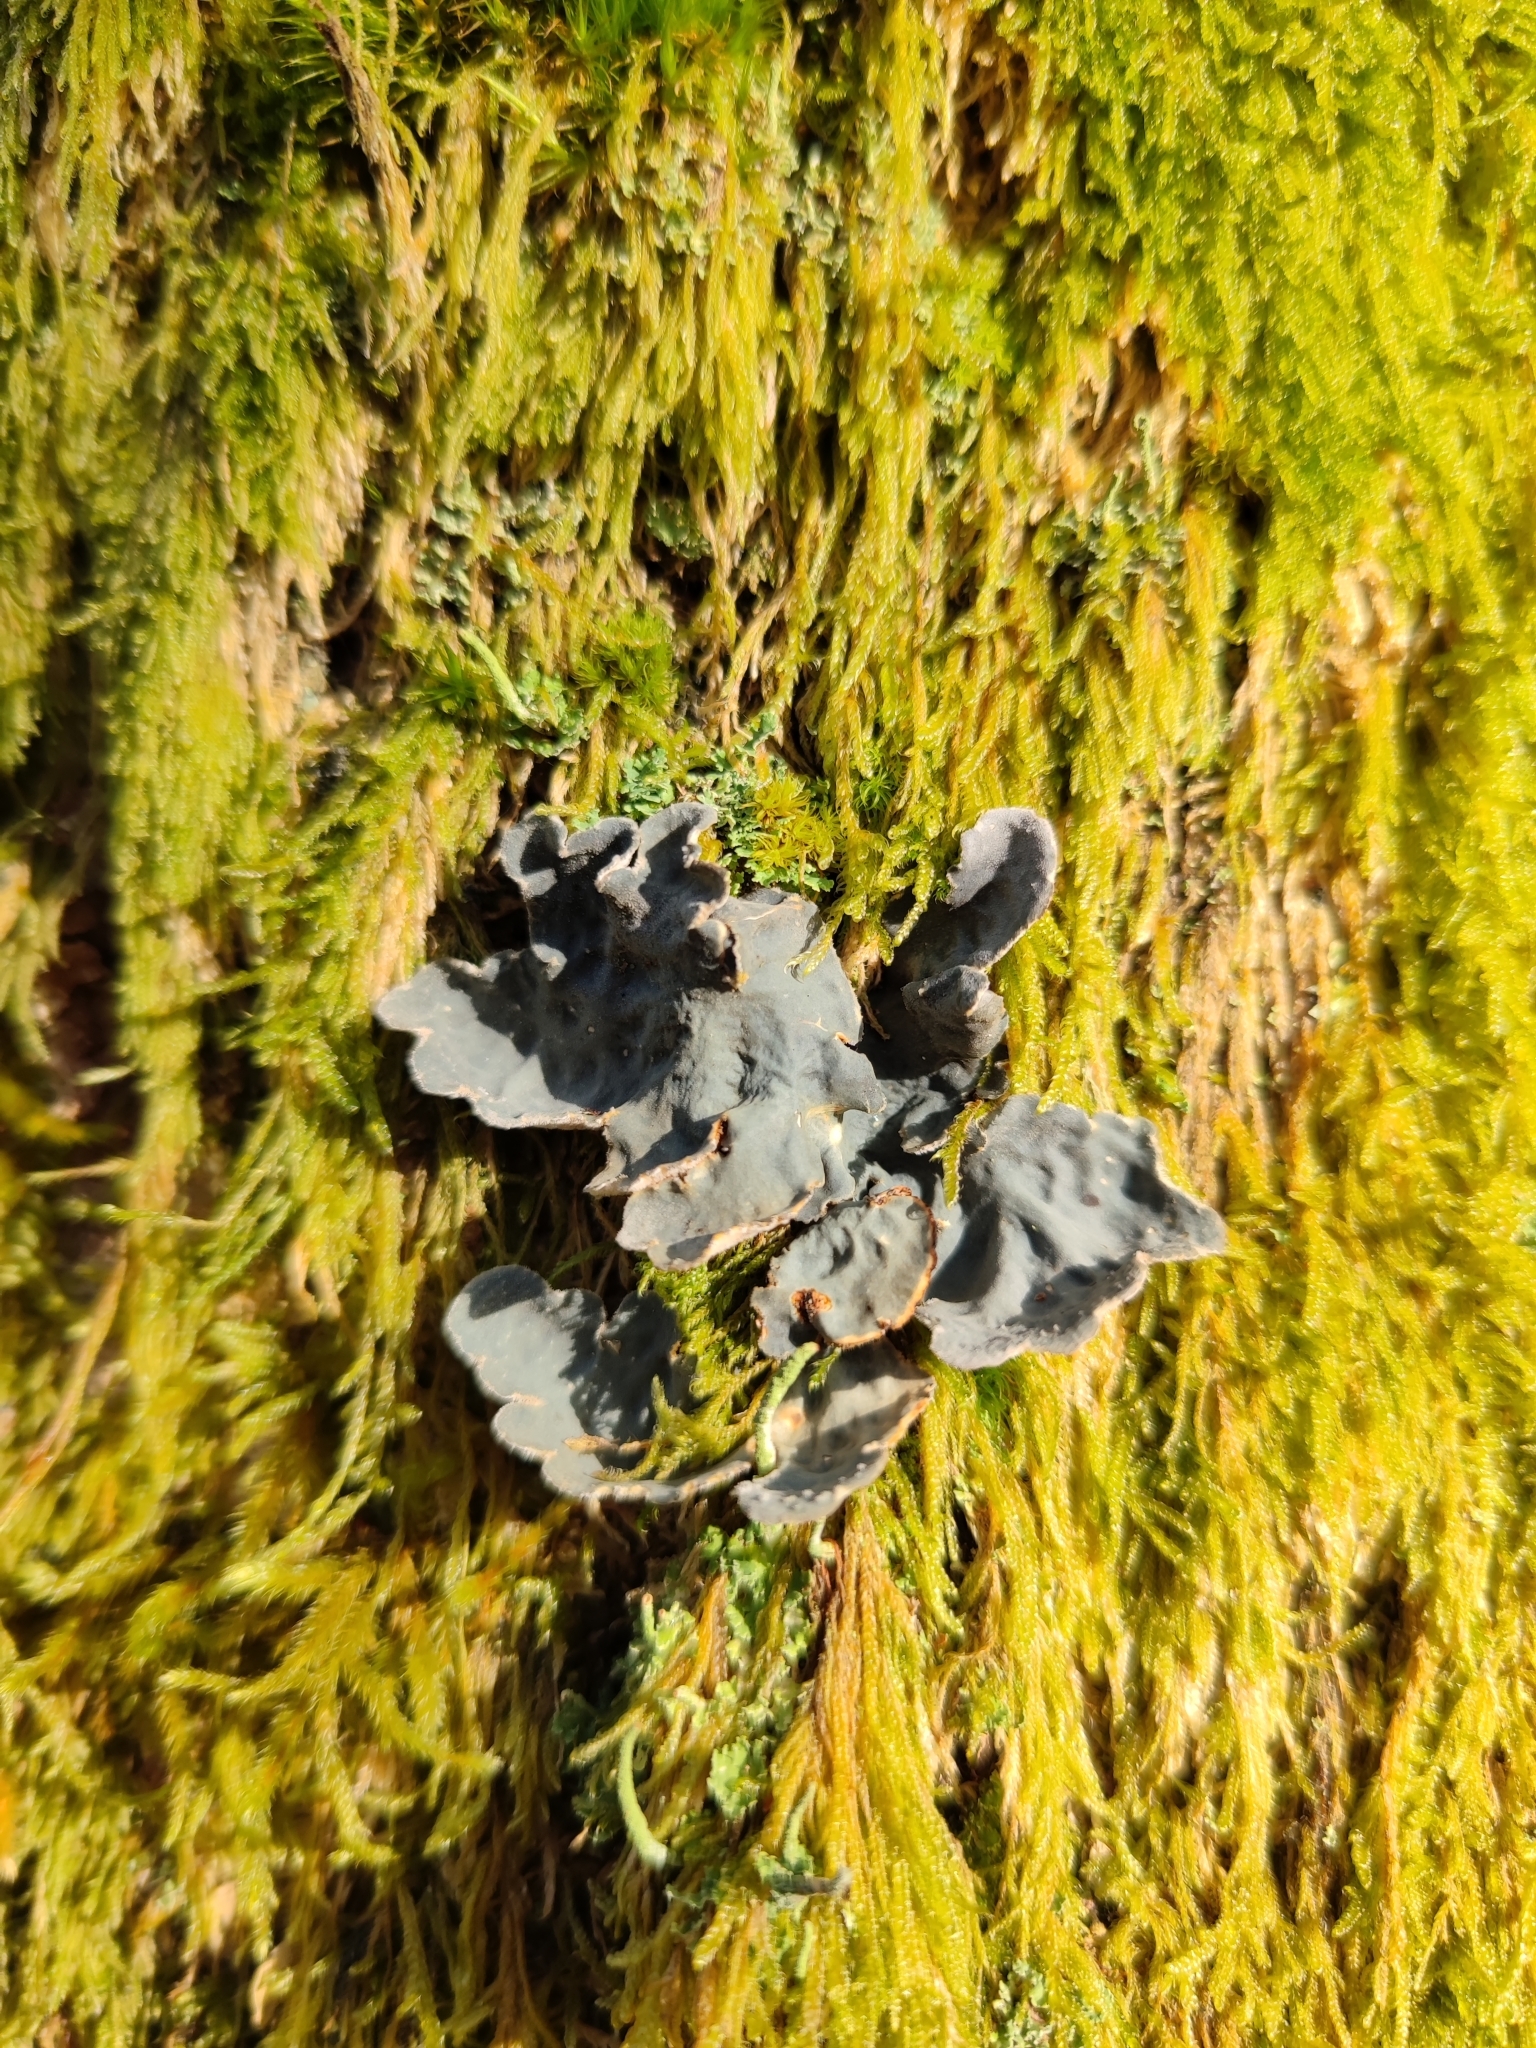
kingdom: Fungi
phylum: Ascomycota
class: Lecanoromycetes
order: Peltigerales
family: Lobariaceae
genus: Lobarina
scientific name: Lobarina scrobiculata
